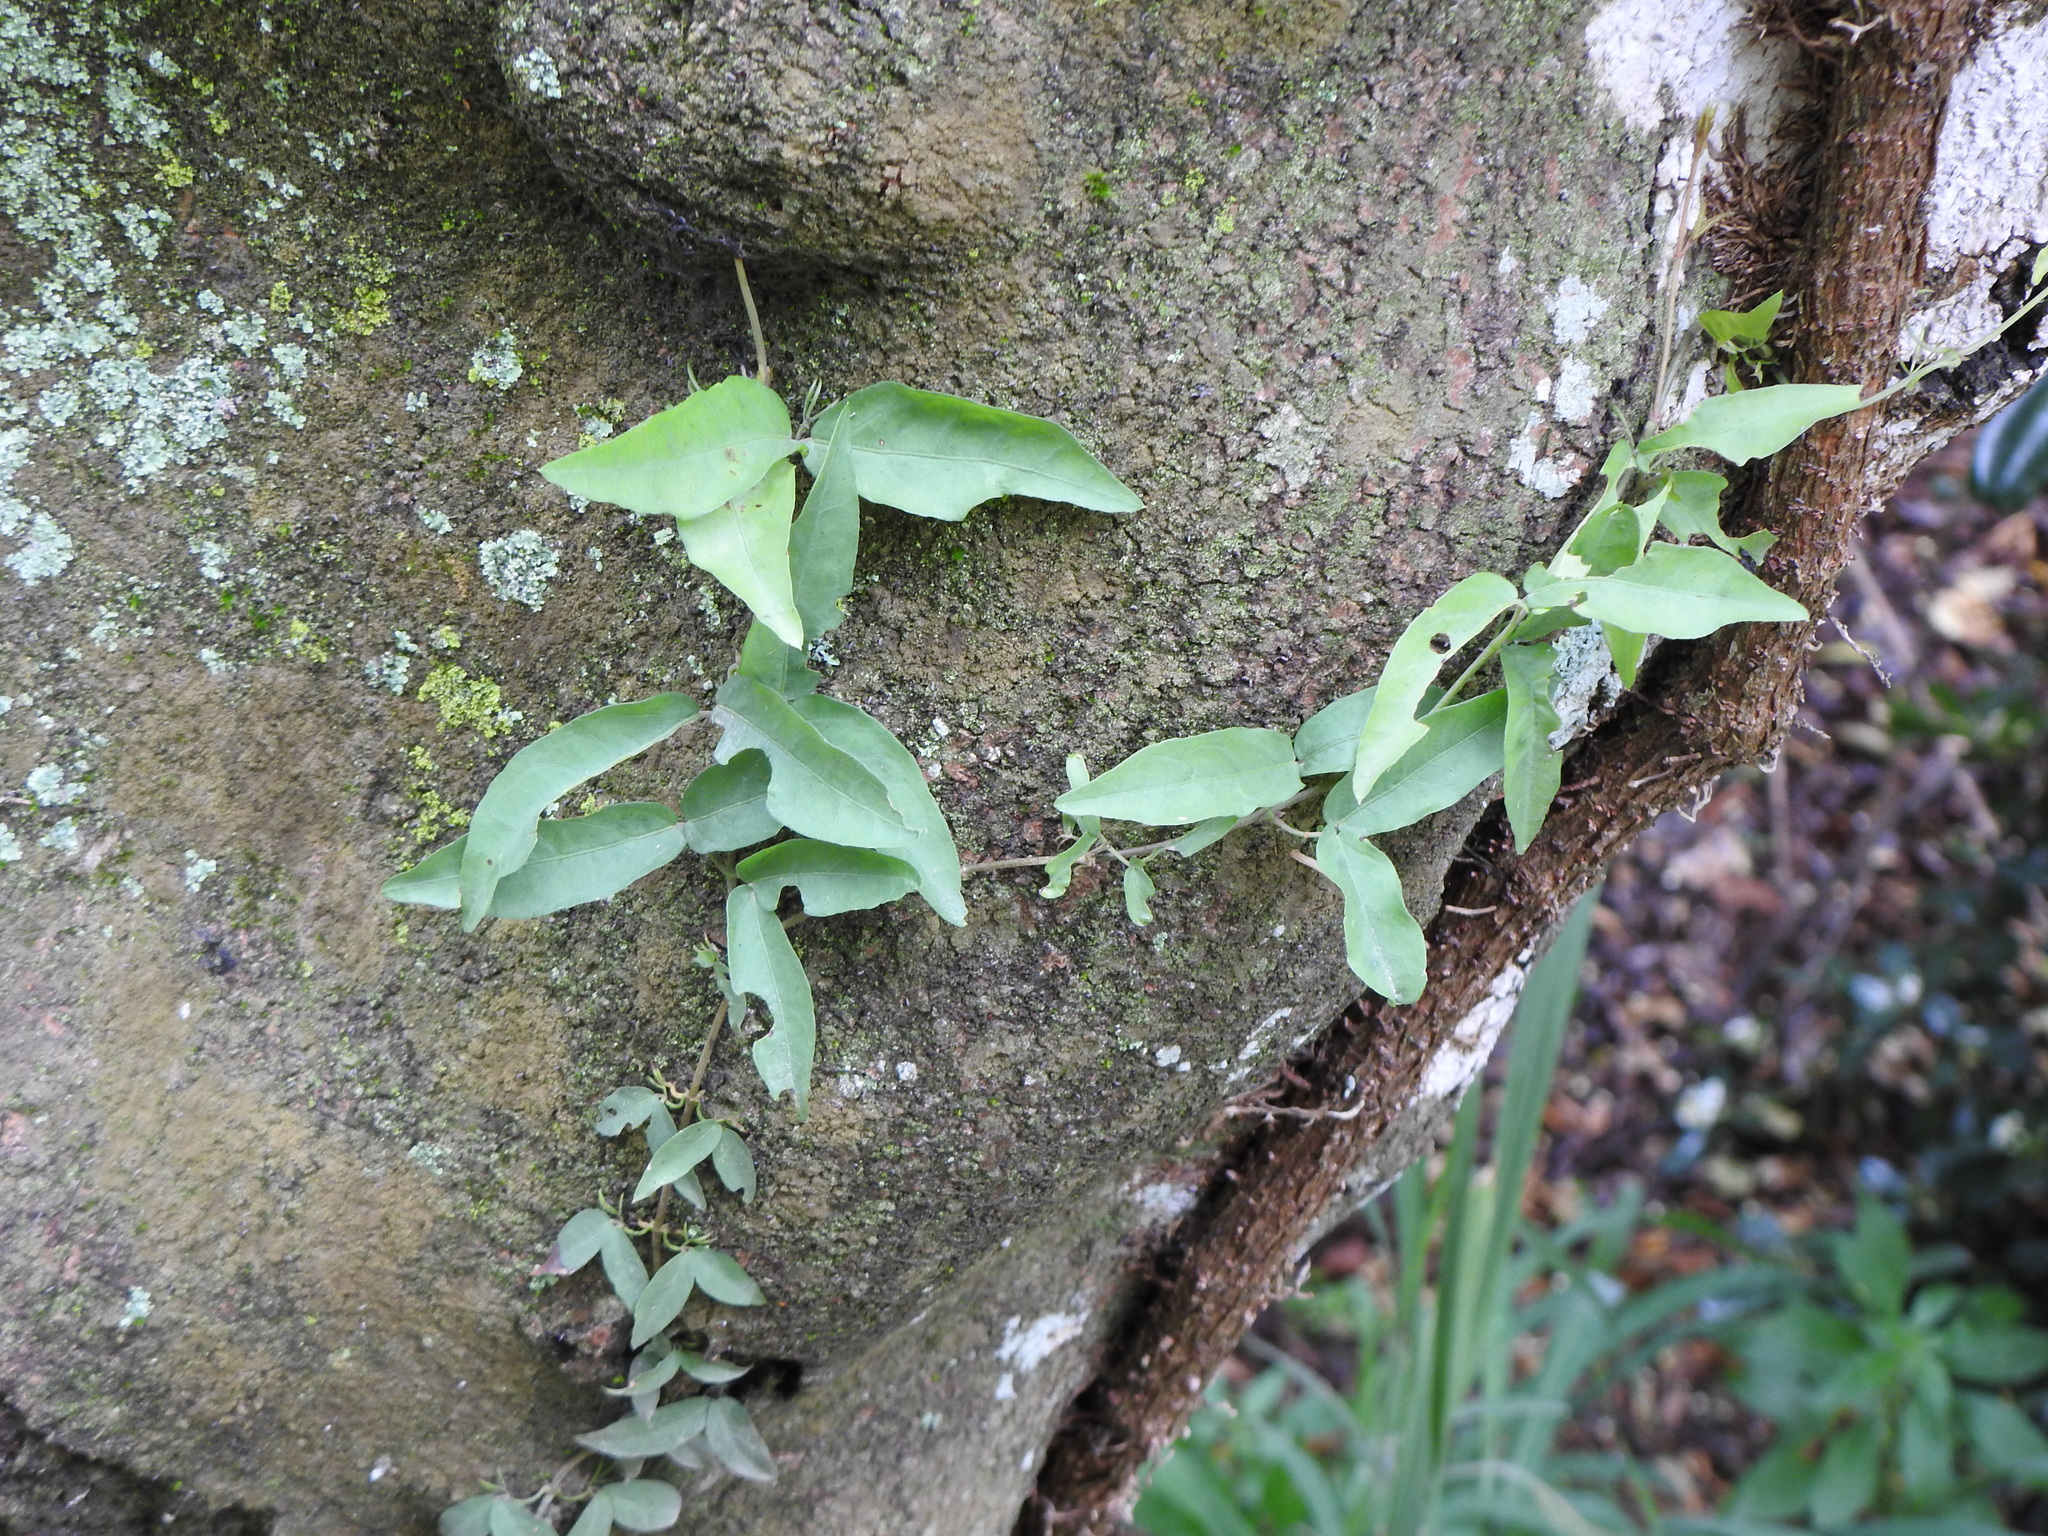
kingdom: Plantae
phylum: Tracheophyta
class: Magnoliopsida
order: Lamiales
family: Bignoniaceae
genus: Dolichandra
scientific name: Dolichandra unguis-cati
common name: Catclaw vine
